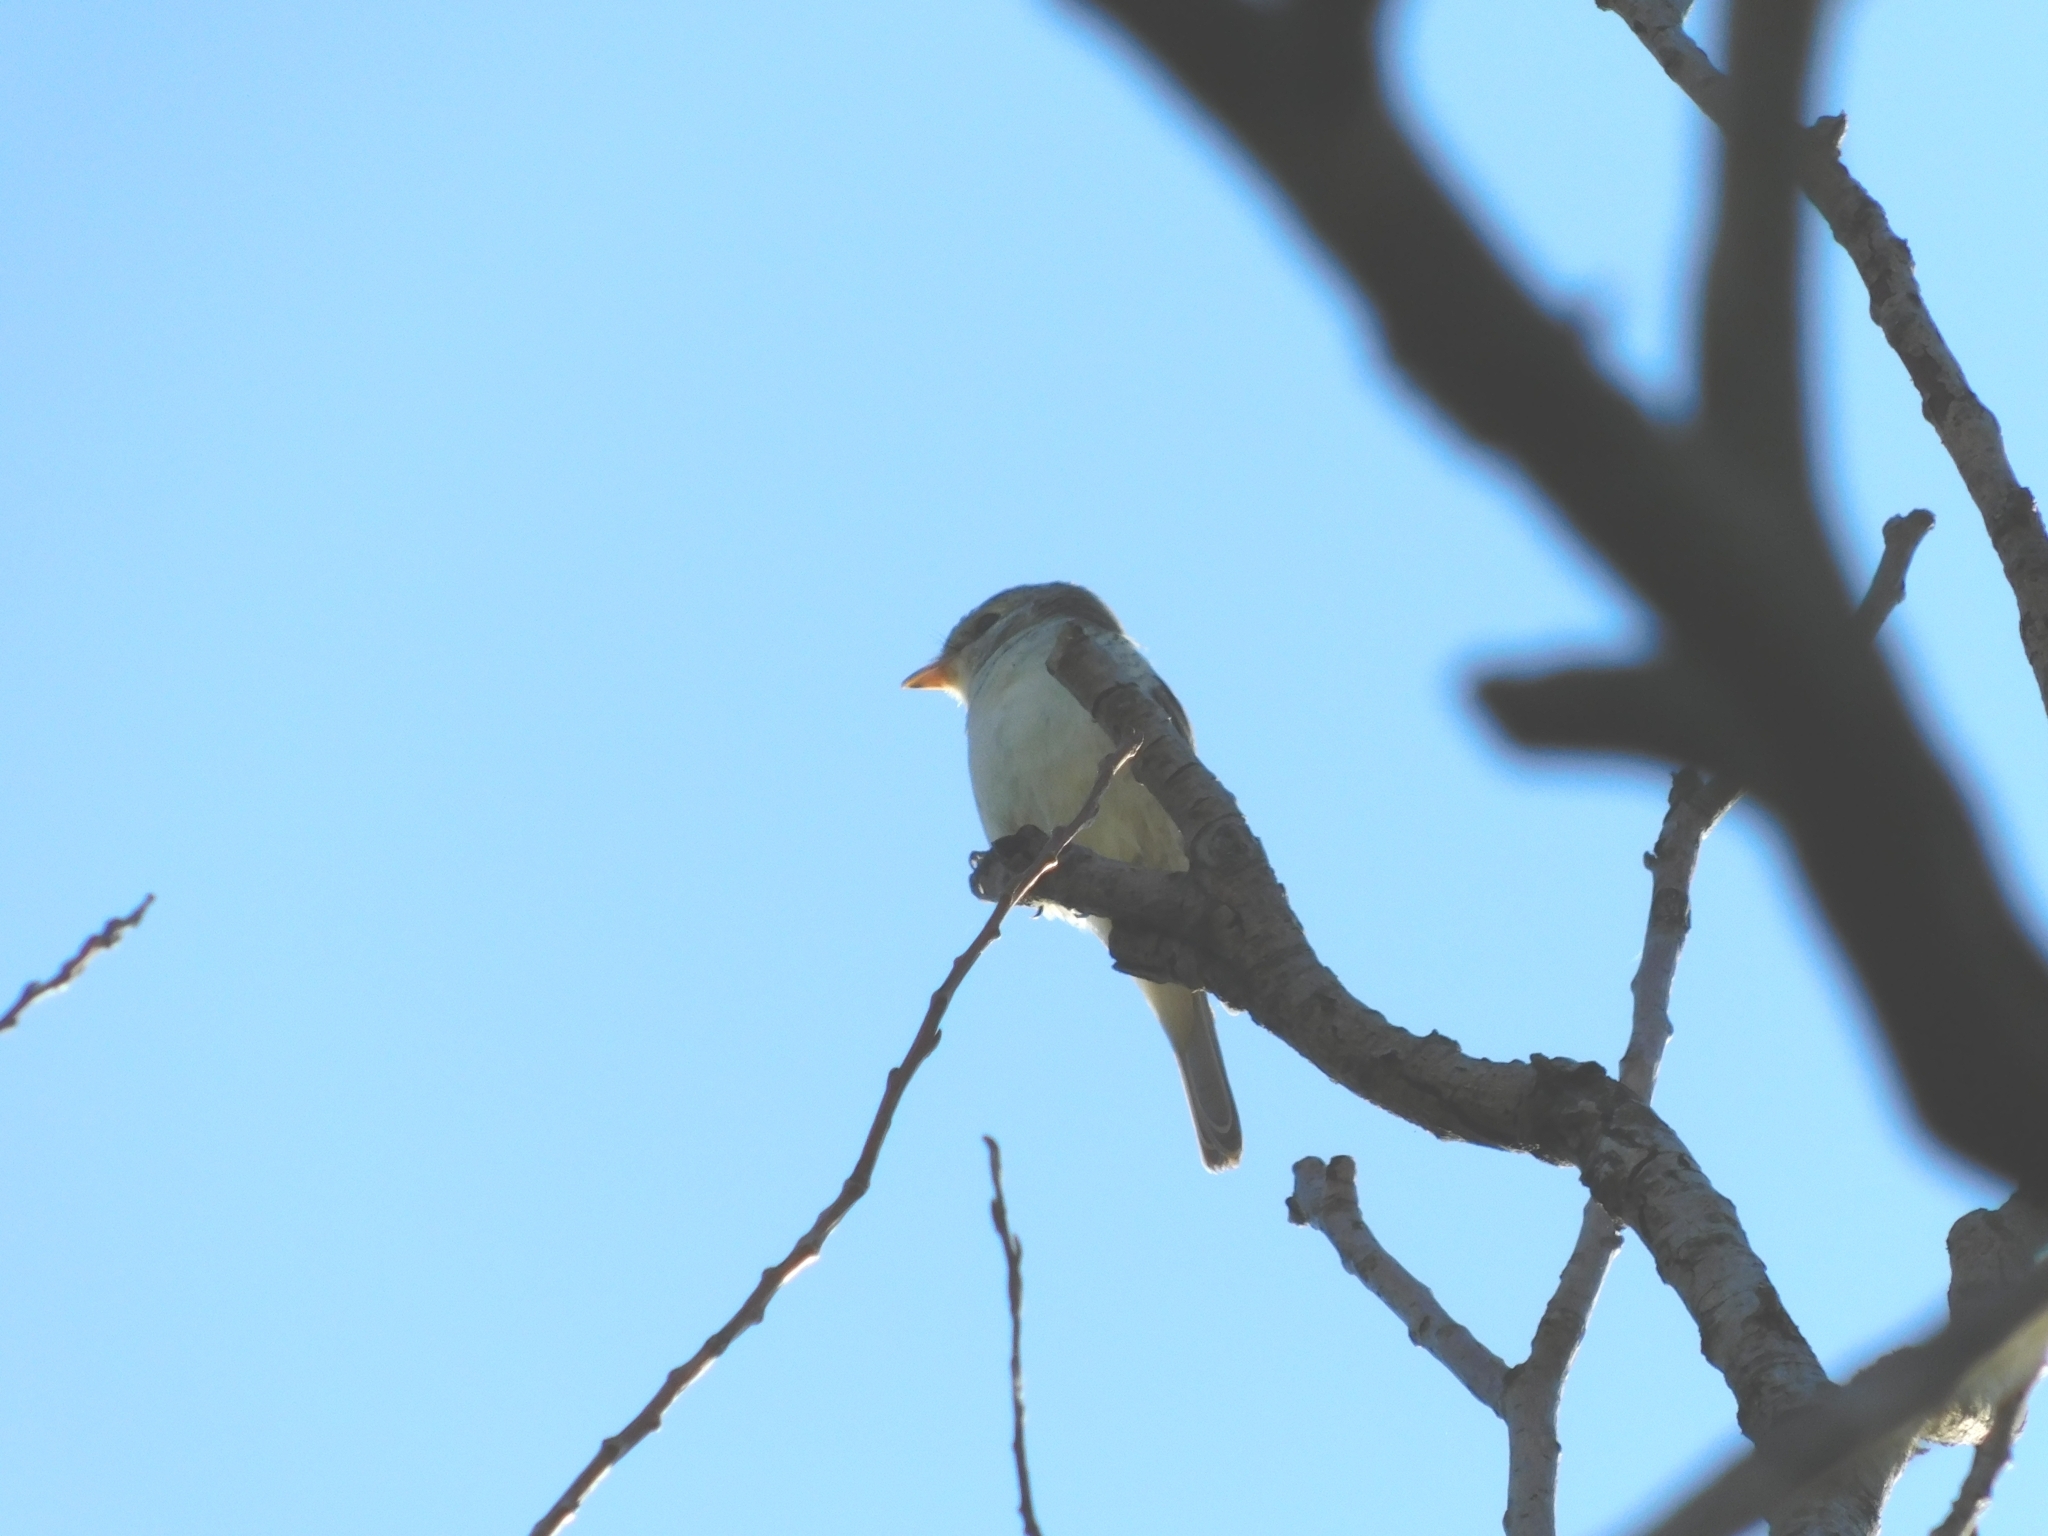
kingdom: Animalia
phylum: Chordata
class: Aves
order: Passeriformes
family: Laniidae
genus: Lanius
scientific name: Lanius collurio
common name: Red-backed shrike
